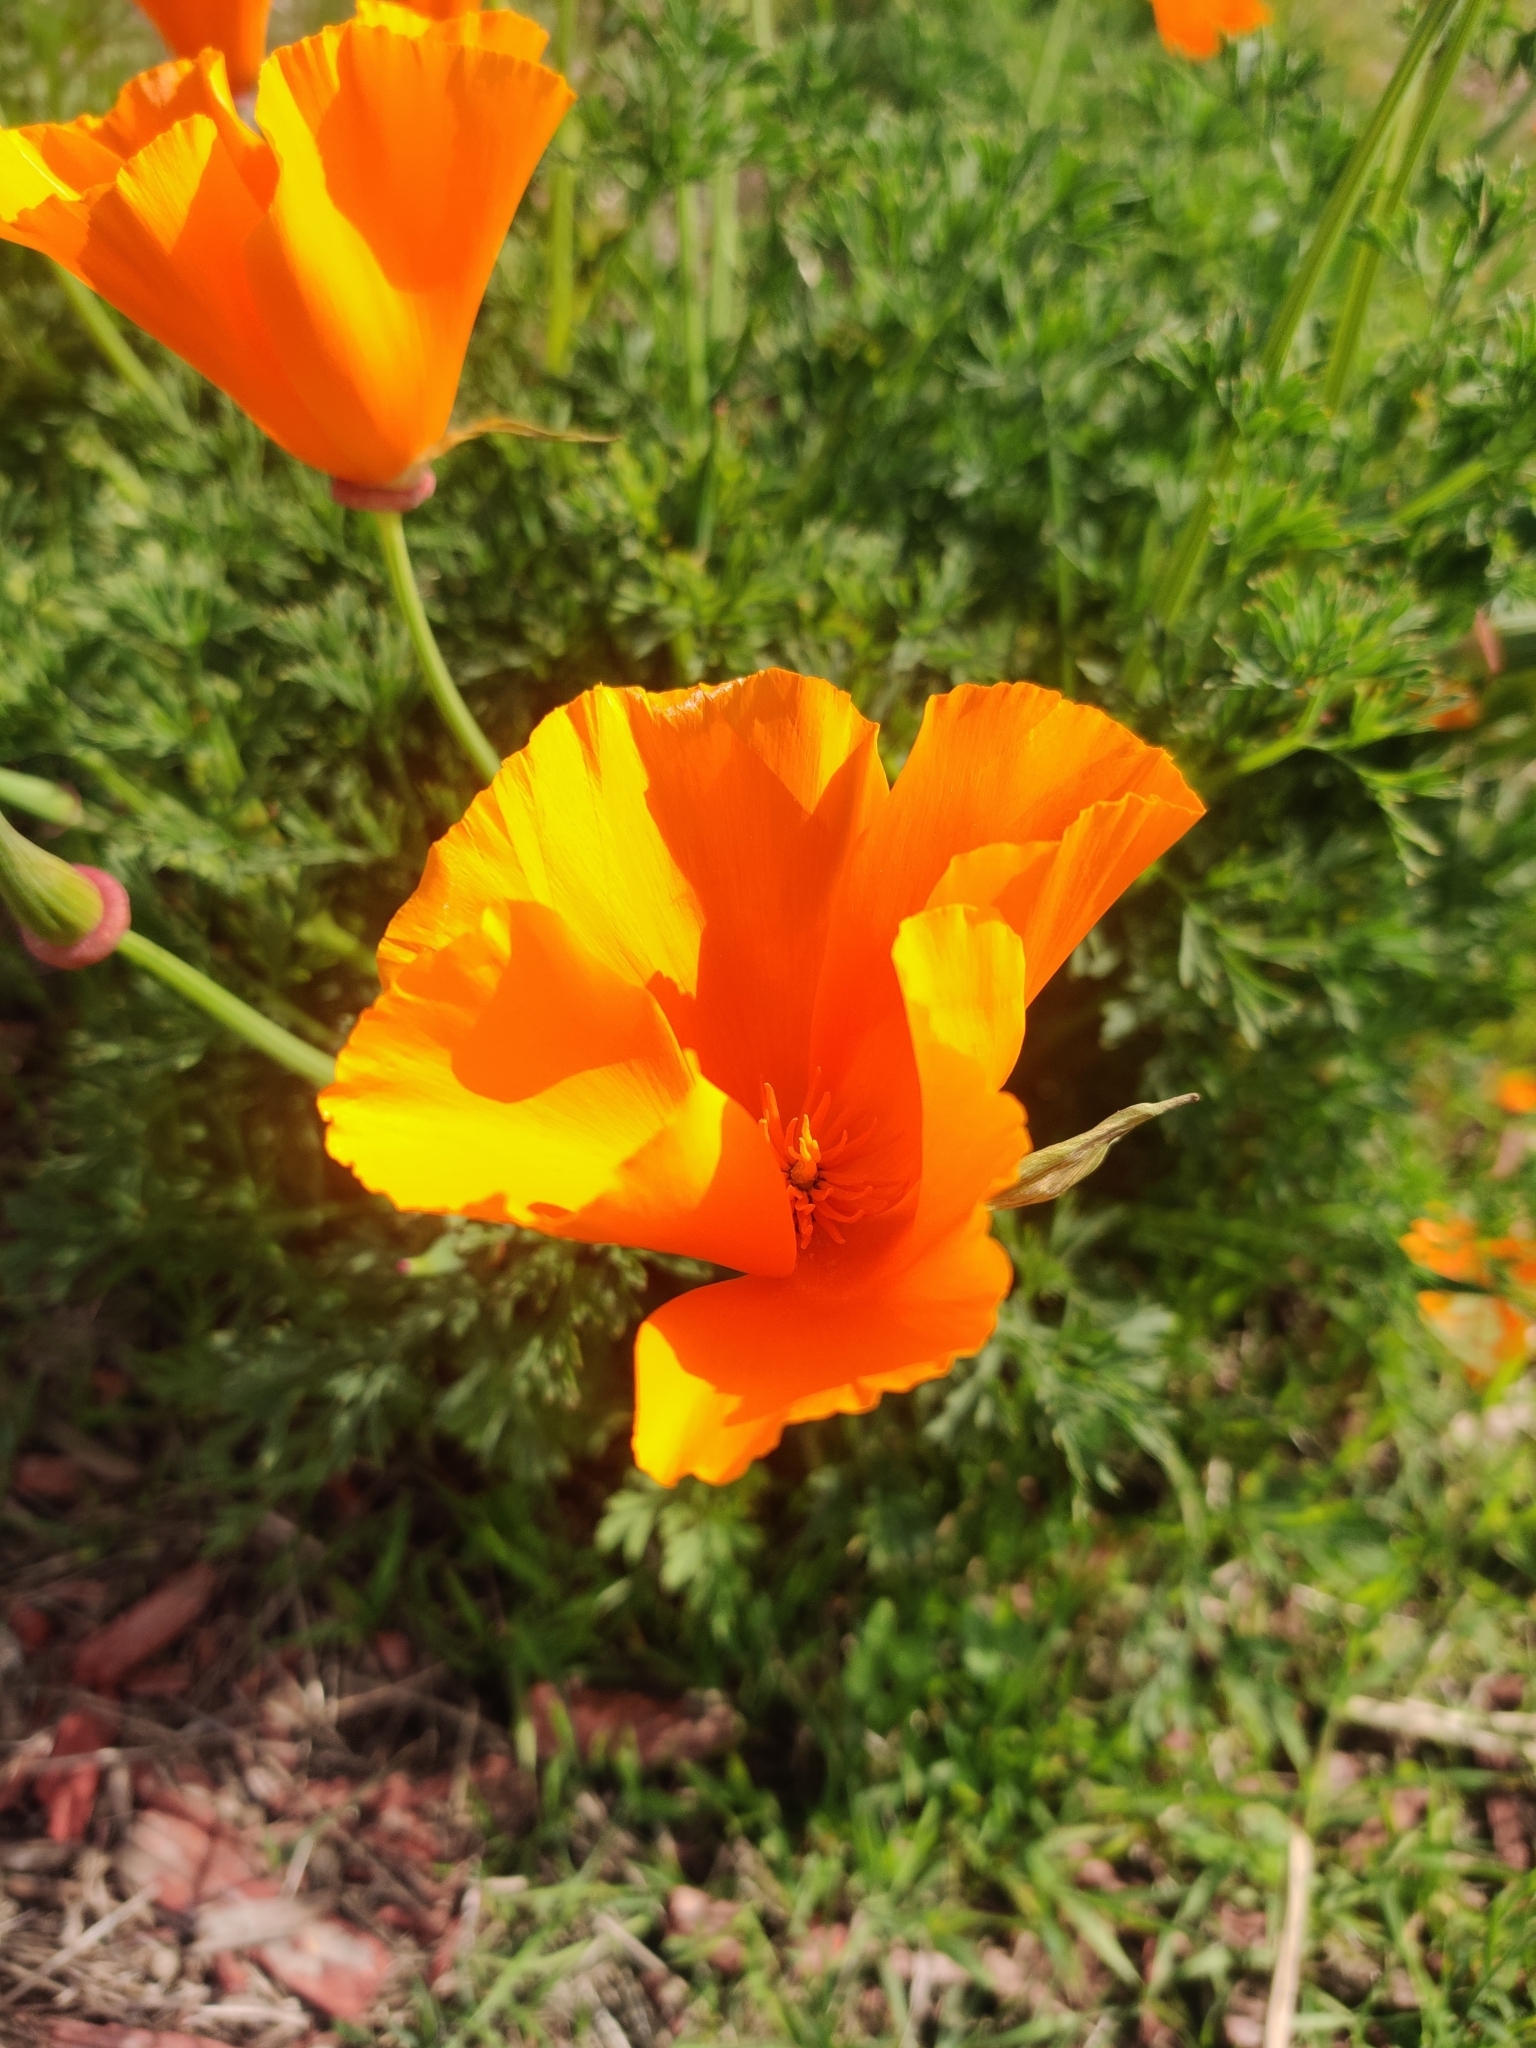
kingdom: Plantae
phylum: Tracheophyta
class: Magnoliopsida
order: Ranunculales
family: Papaveraceae
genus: Eschscholzia
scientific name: Eschscholzia californica
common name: California poppy
